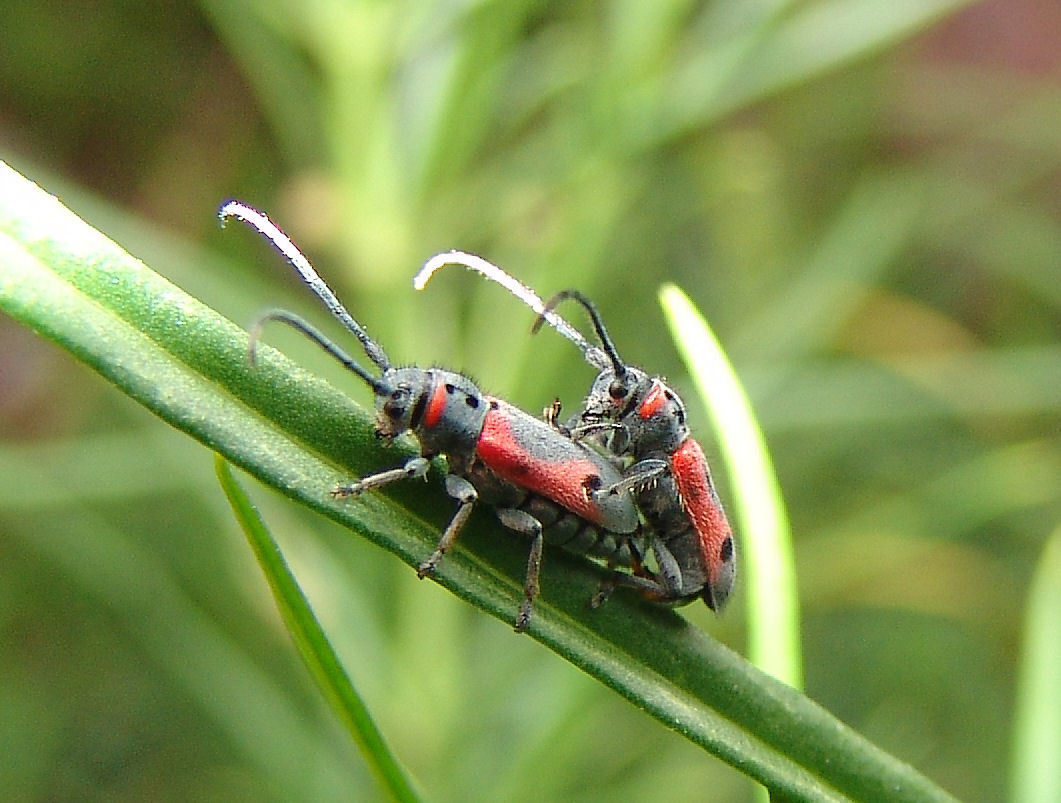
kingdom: Animalia
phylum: Arthropoda
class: Insecta
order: Coleoptera
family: Cerambycidae
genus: Tetraopes
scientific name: Tetraopes discoideus
